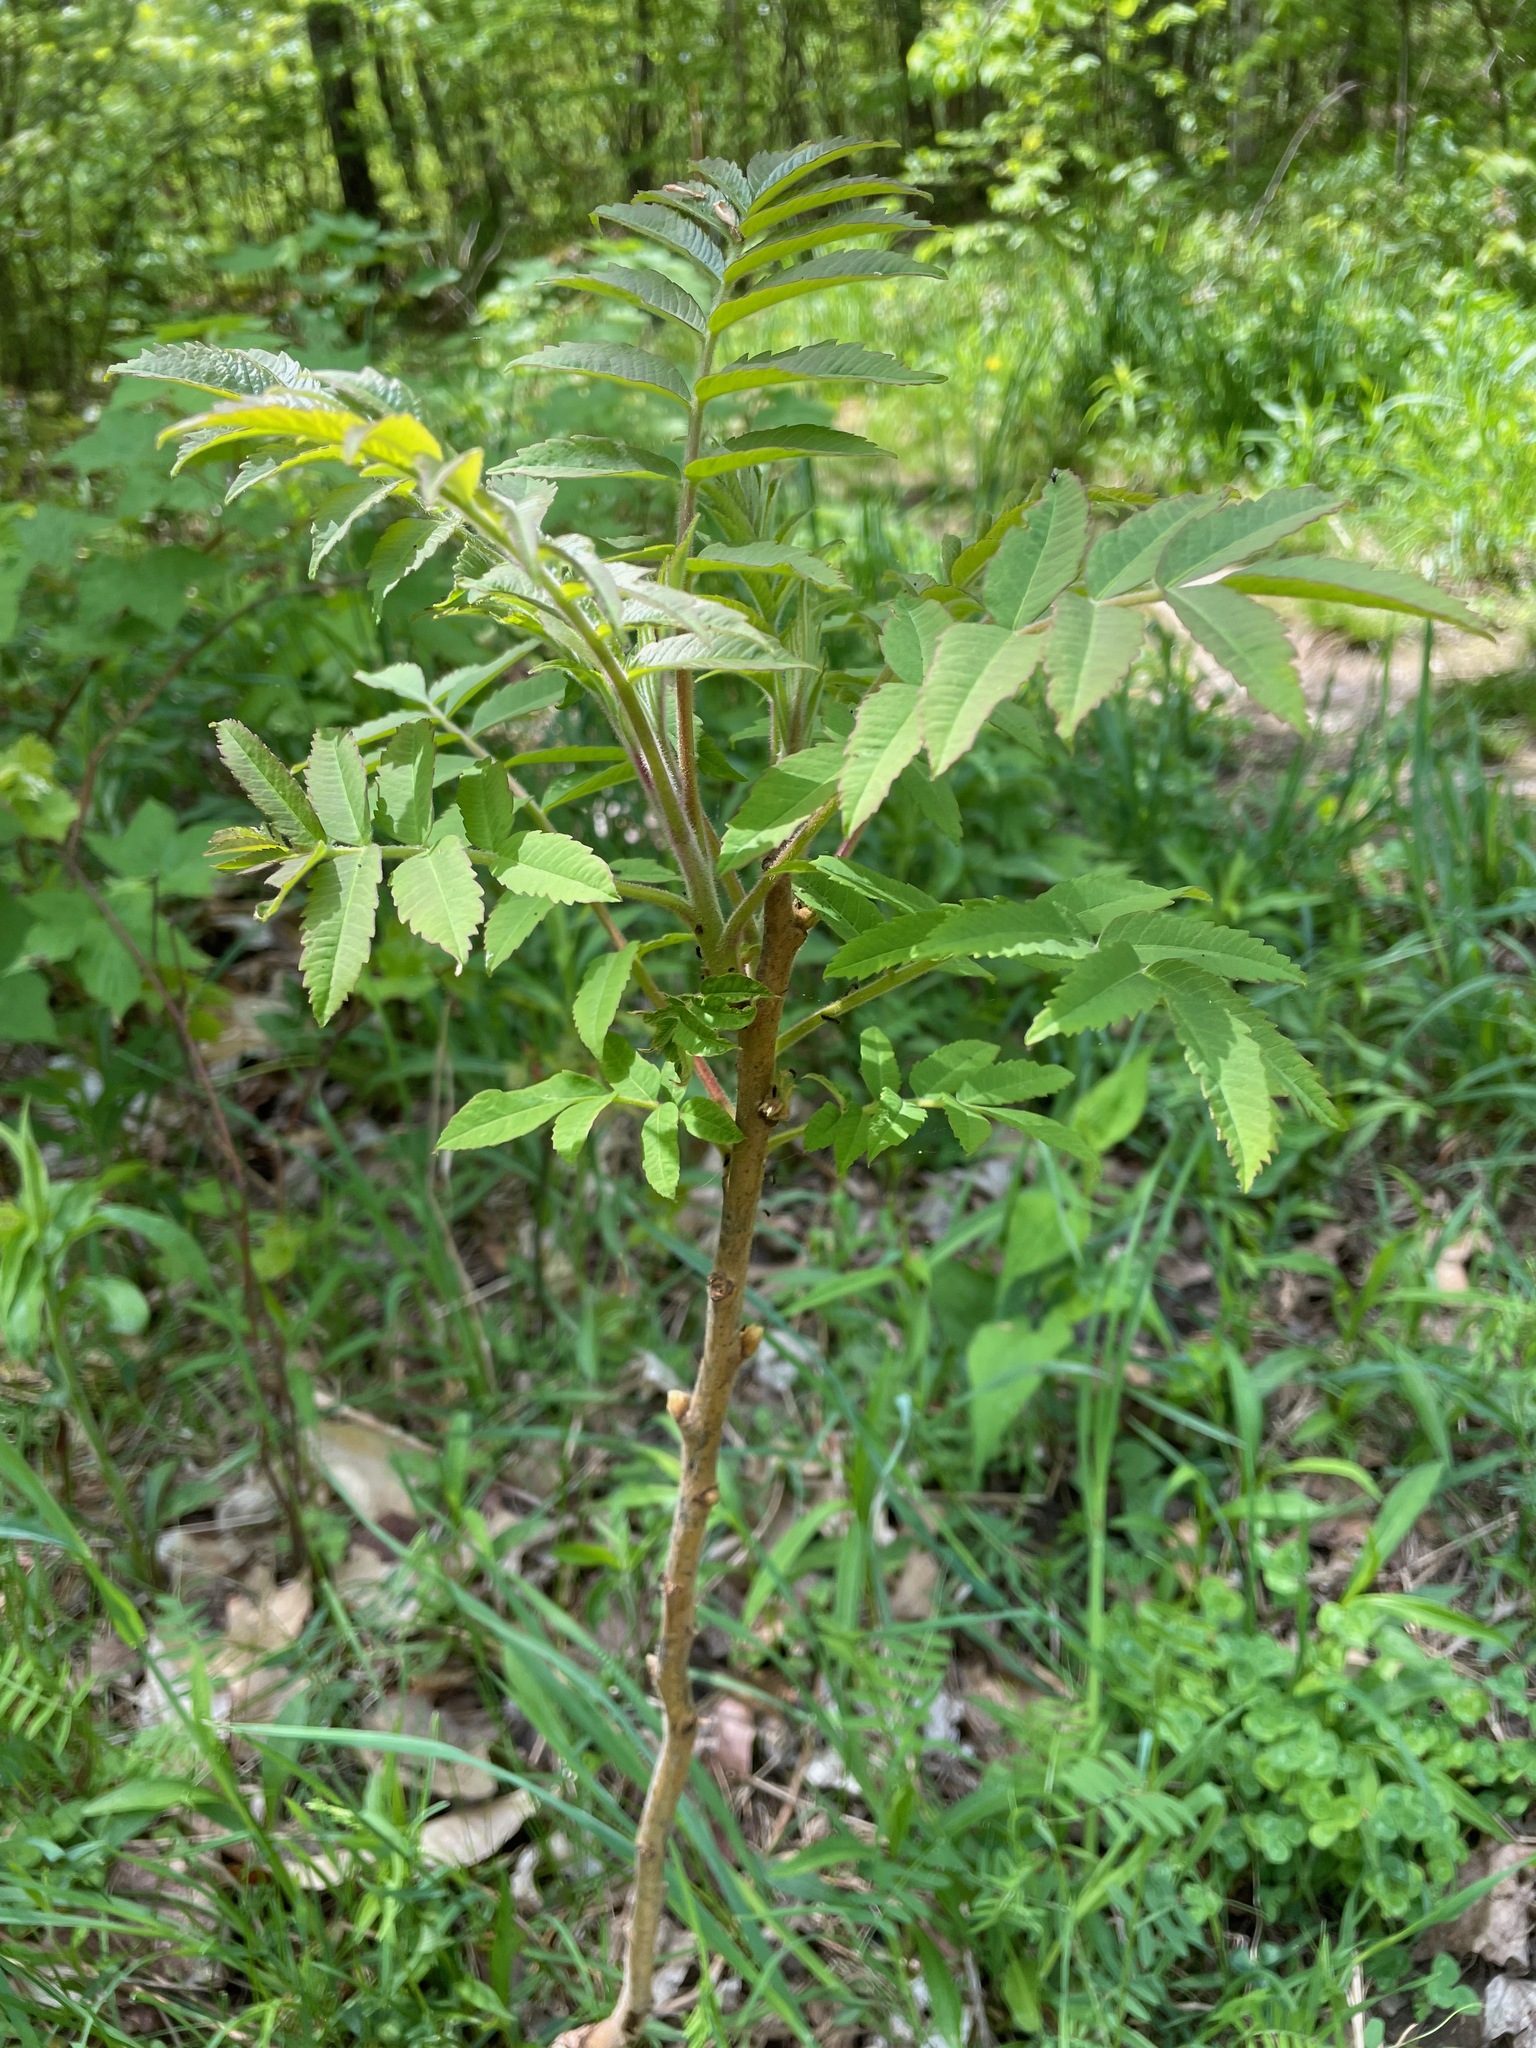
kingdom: Plantae
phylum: Tracheophyta
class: Magnoliopsida
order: Sapindales
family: Anacardiaceae
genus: Rhus
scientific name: Rhus typhina
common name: Staghorn sumac
